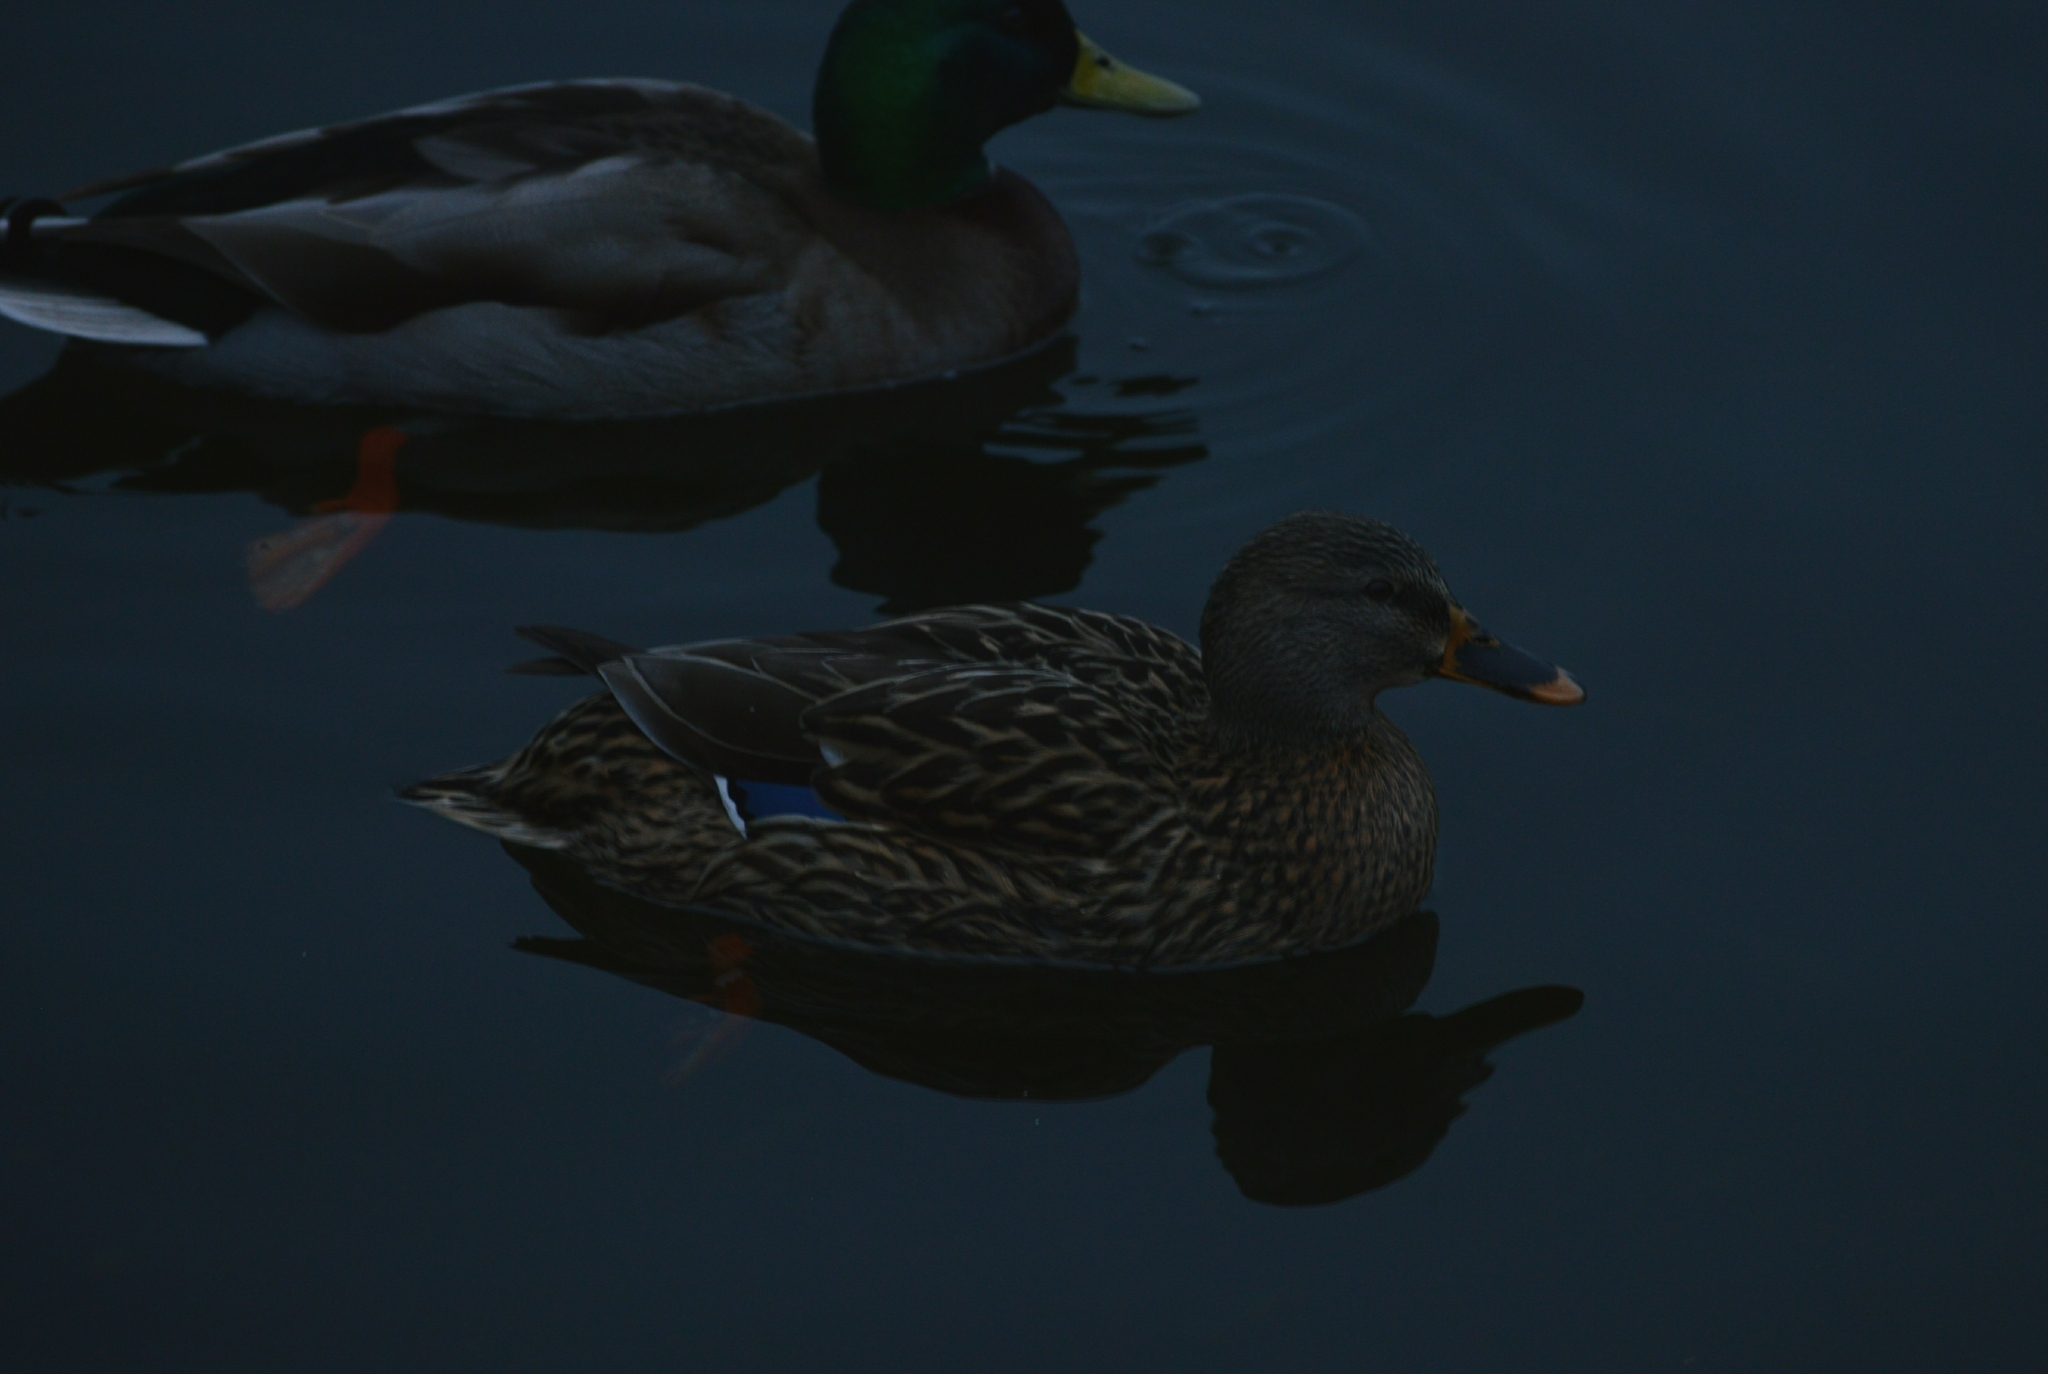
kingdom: Animalia
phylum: Chordata
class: Aves
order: Anseriformes
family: Anatidae
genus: Anas
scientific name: Anas platyrhynchos
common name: Mallard
